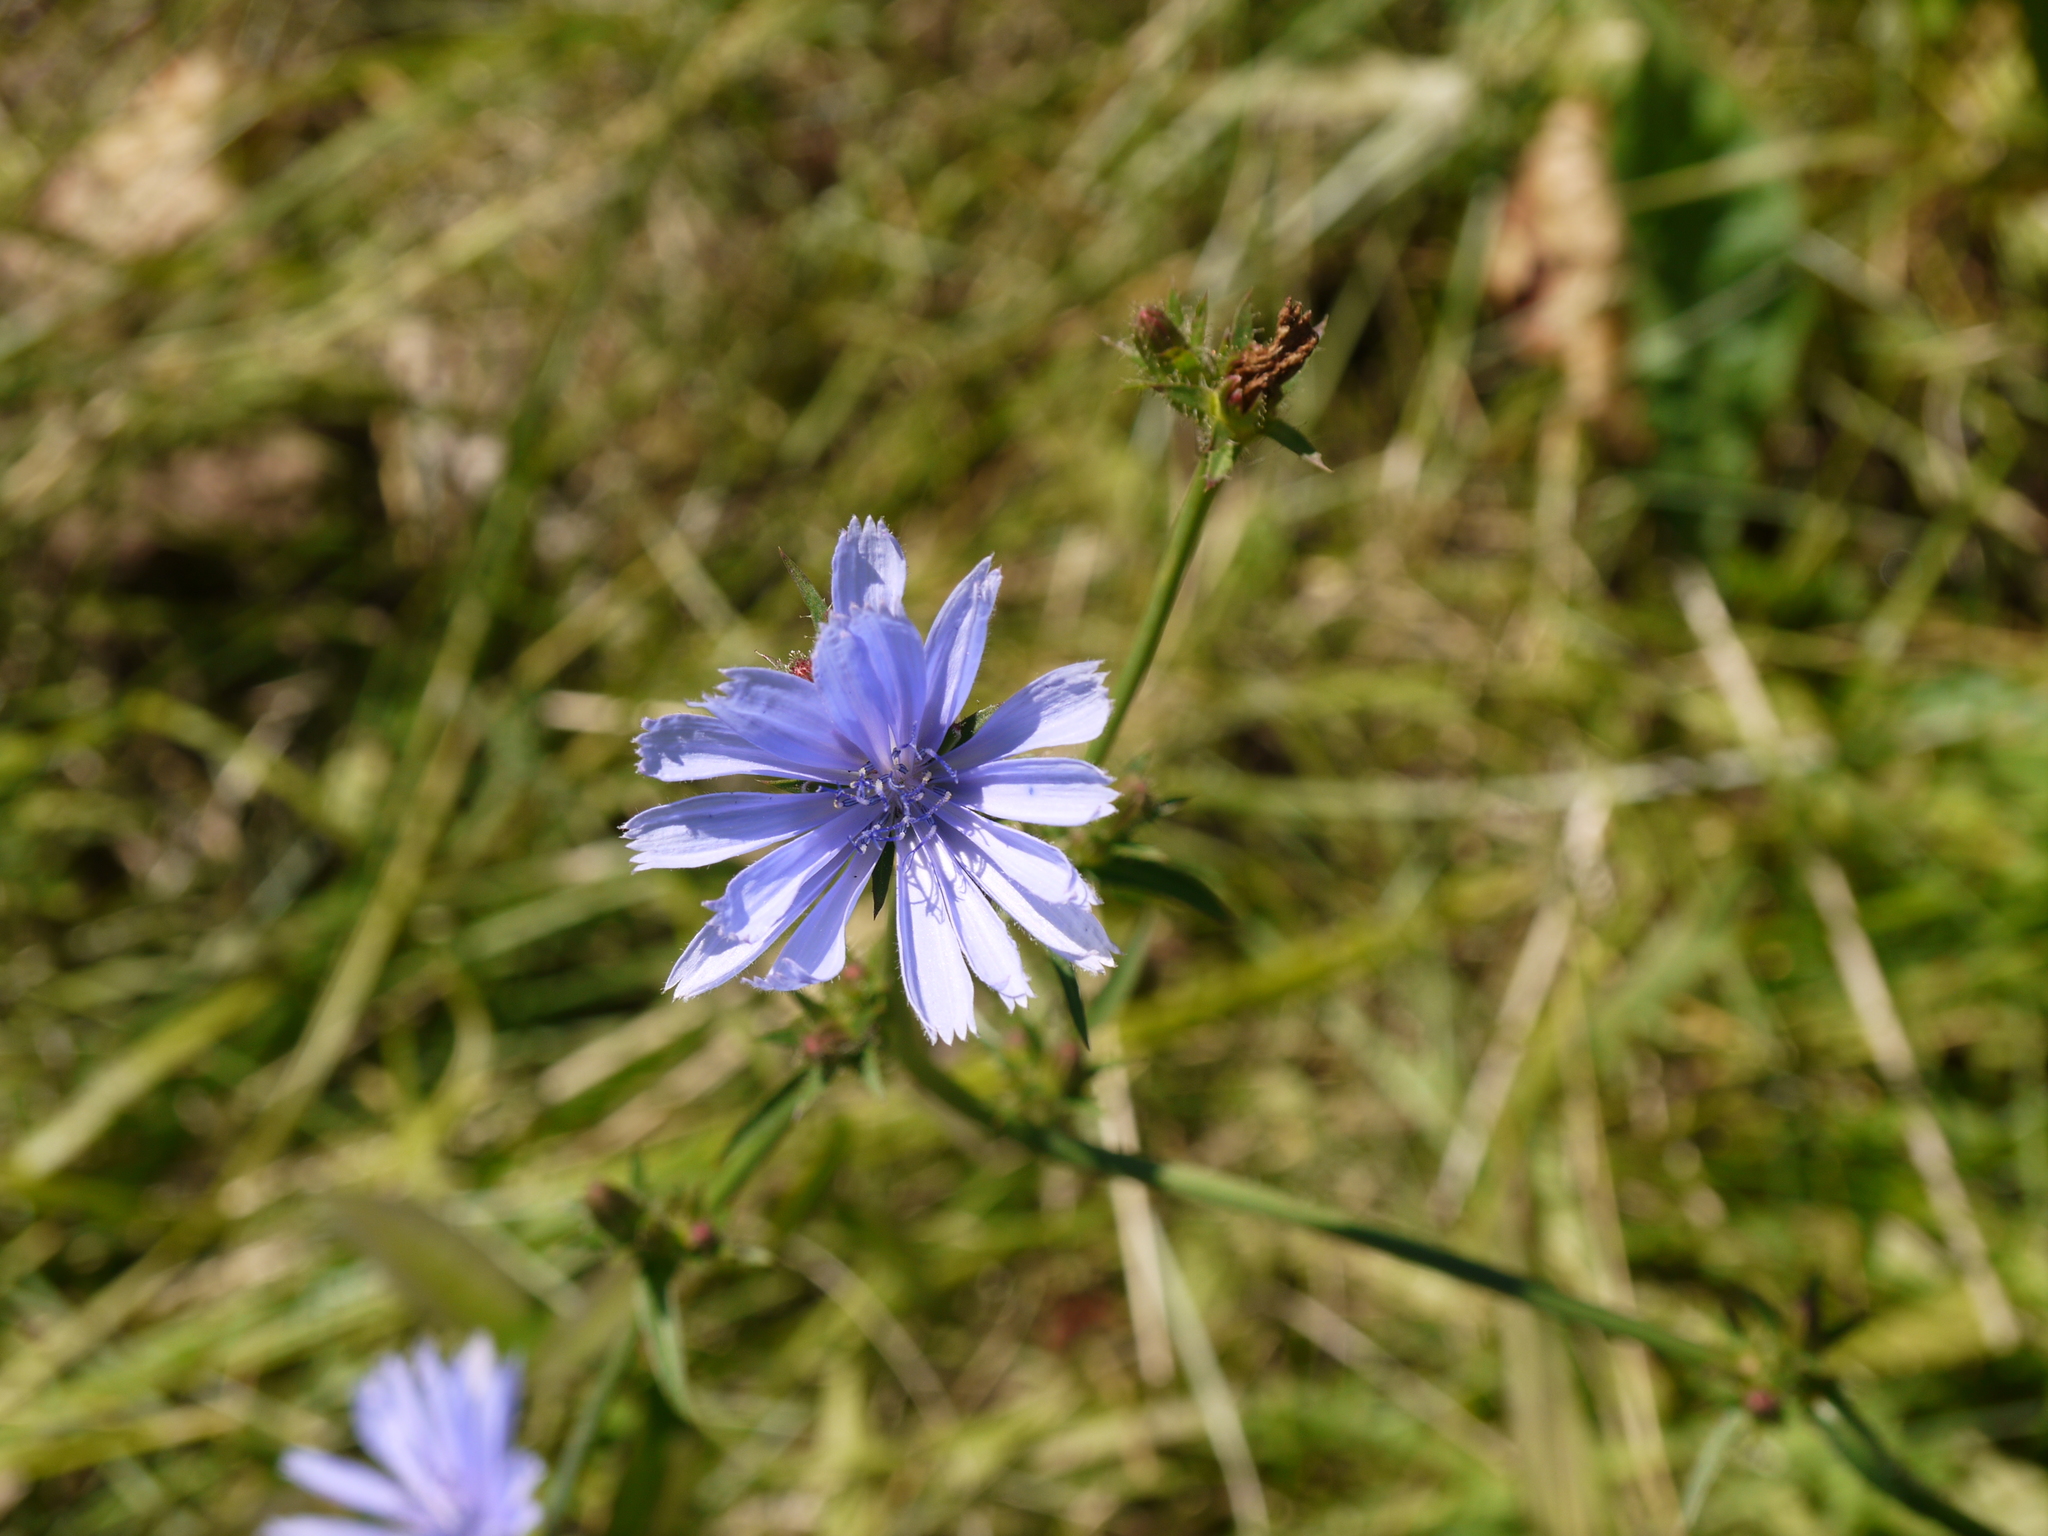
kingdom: Plantae
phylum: Tracheophyta
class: Magnoliopsida
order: Asterales
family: Asteraceae
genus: Cichorium
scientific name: Cichorium intybus
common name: Chicory
